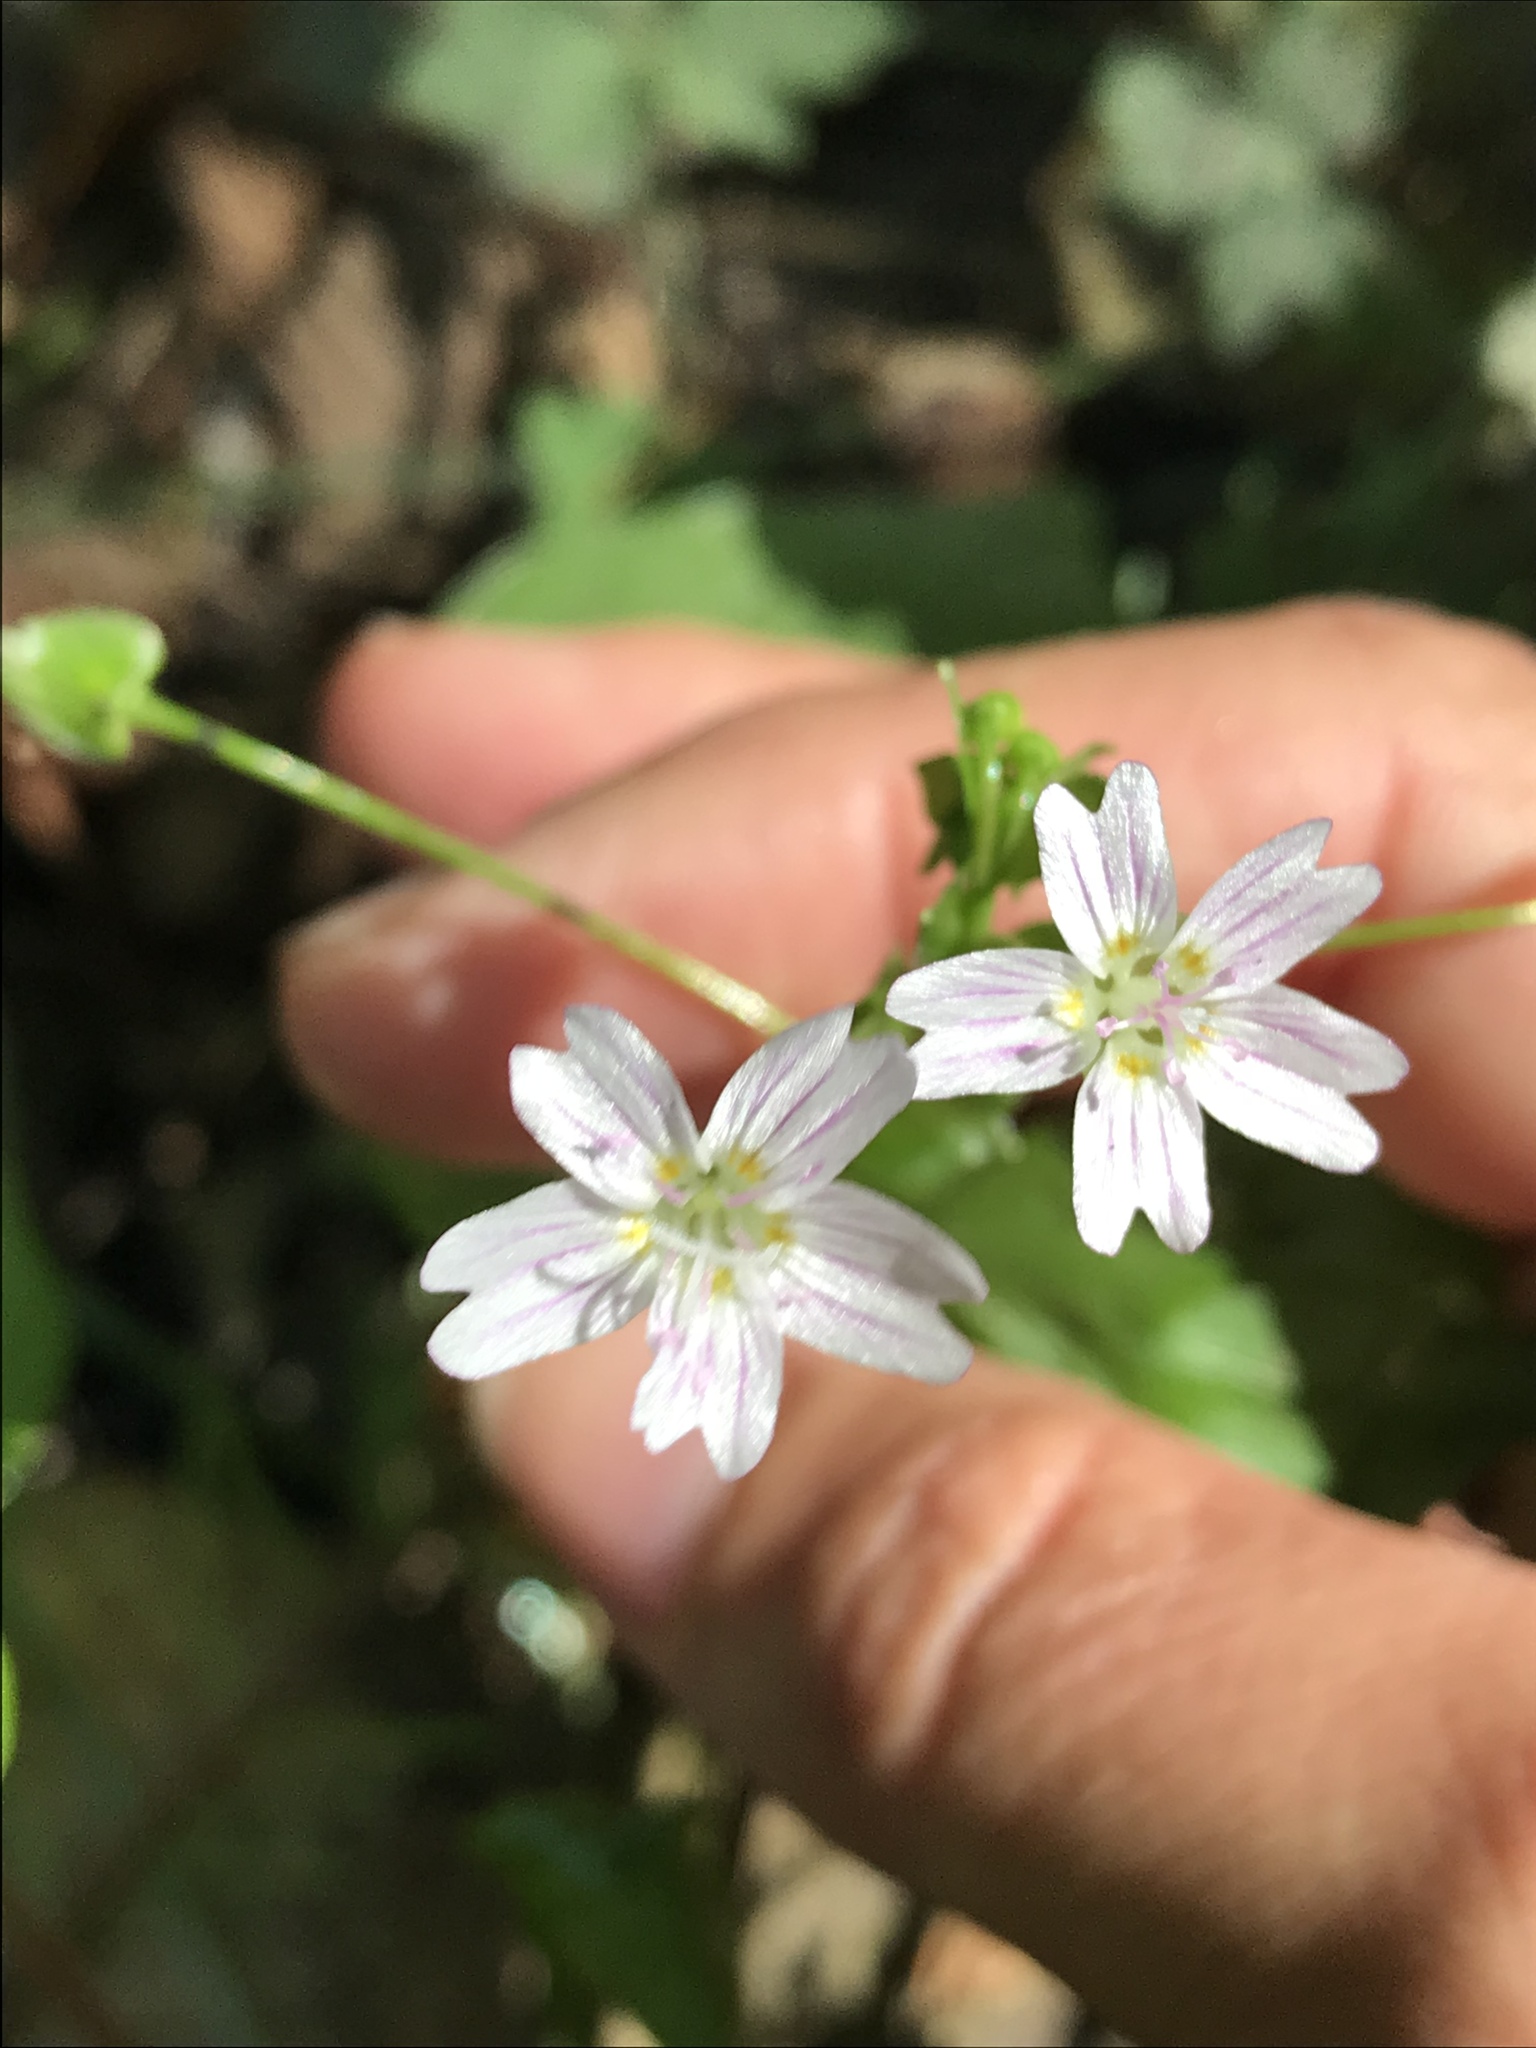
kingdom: Plantae
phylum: Tracheophyta
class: Magnoliopsida
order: Caryophyllales
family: Montiaceae
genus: Claytonia
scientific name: Claytonia sibirica
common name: Pink purslane
